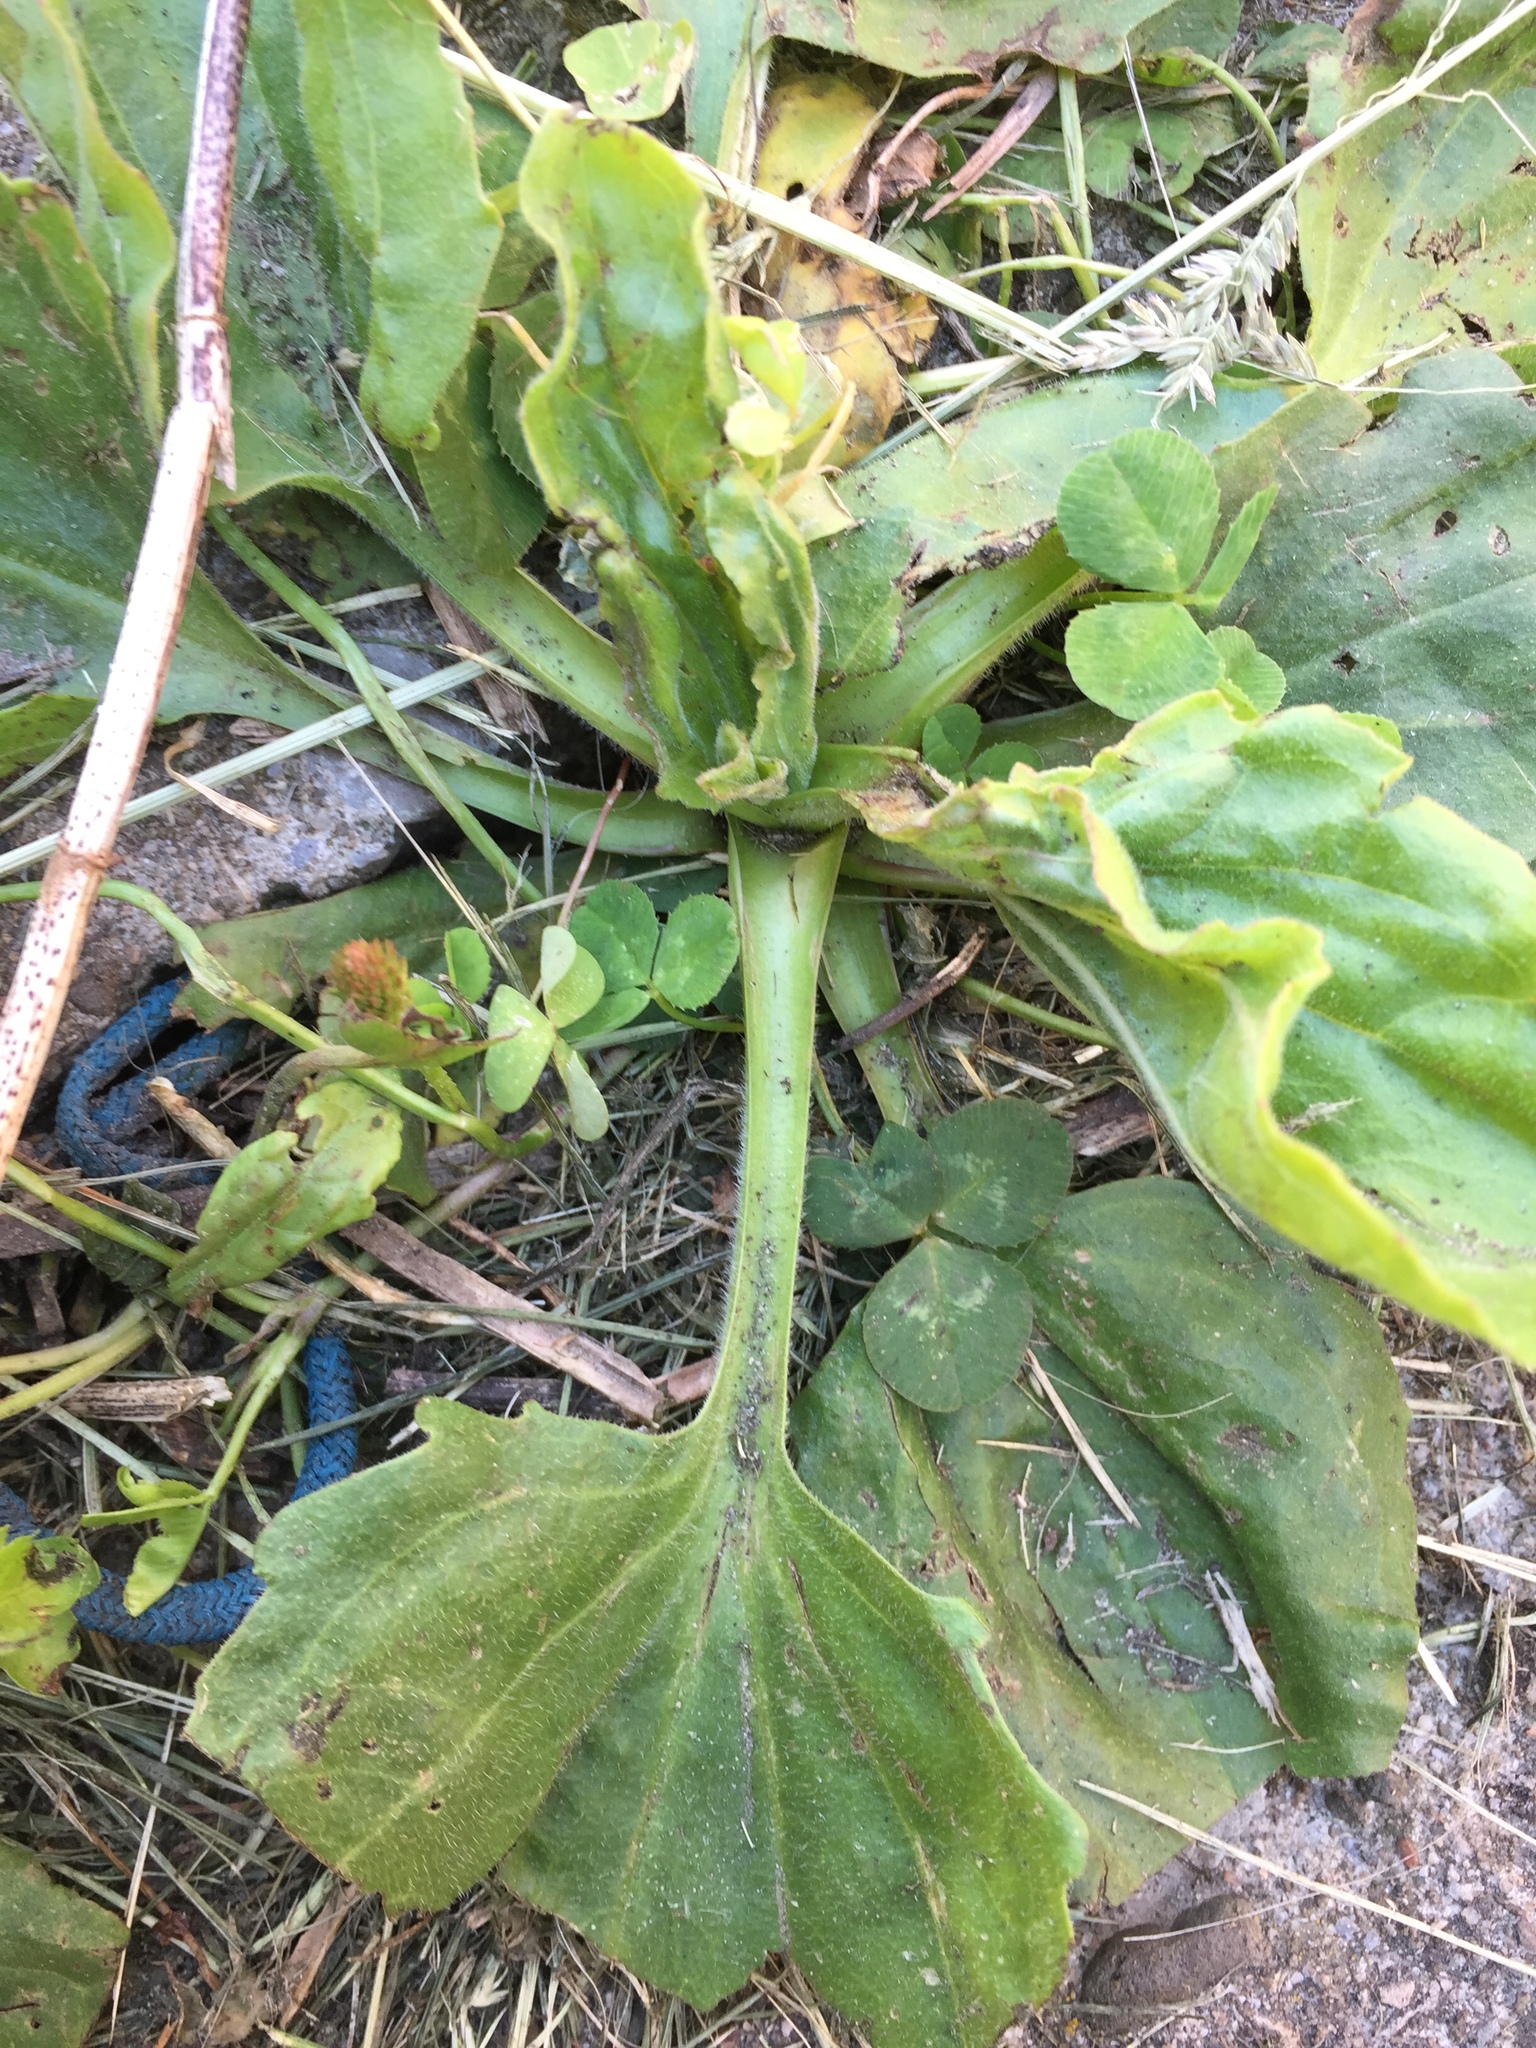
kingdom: Plantae
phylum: Tracheophyta
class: Magnoliopsida
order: Lamiales
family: Plantaginaceae
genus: Plantago
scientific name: Plantago major
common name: Common plantain
